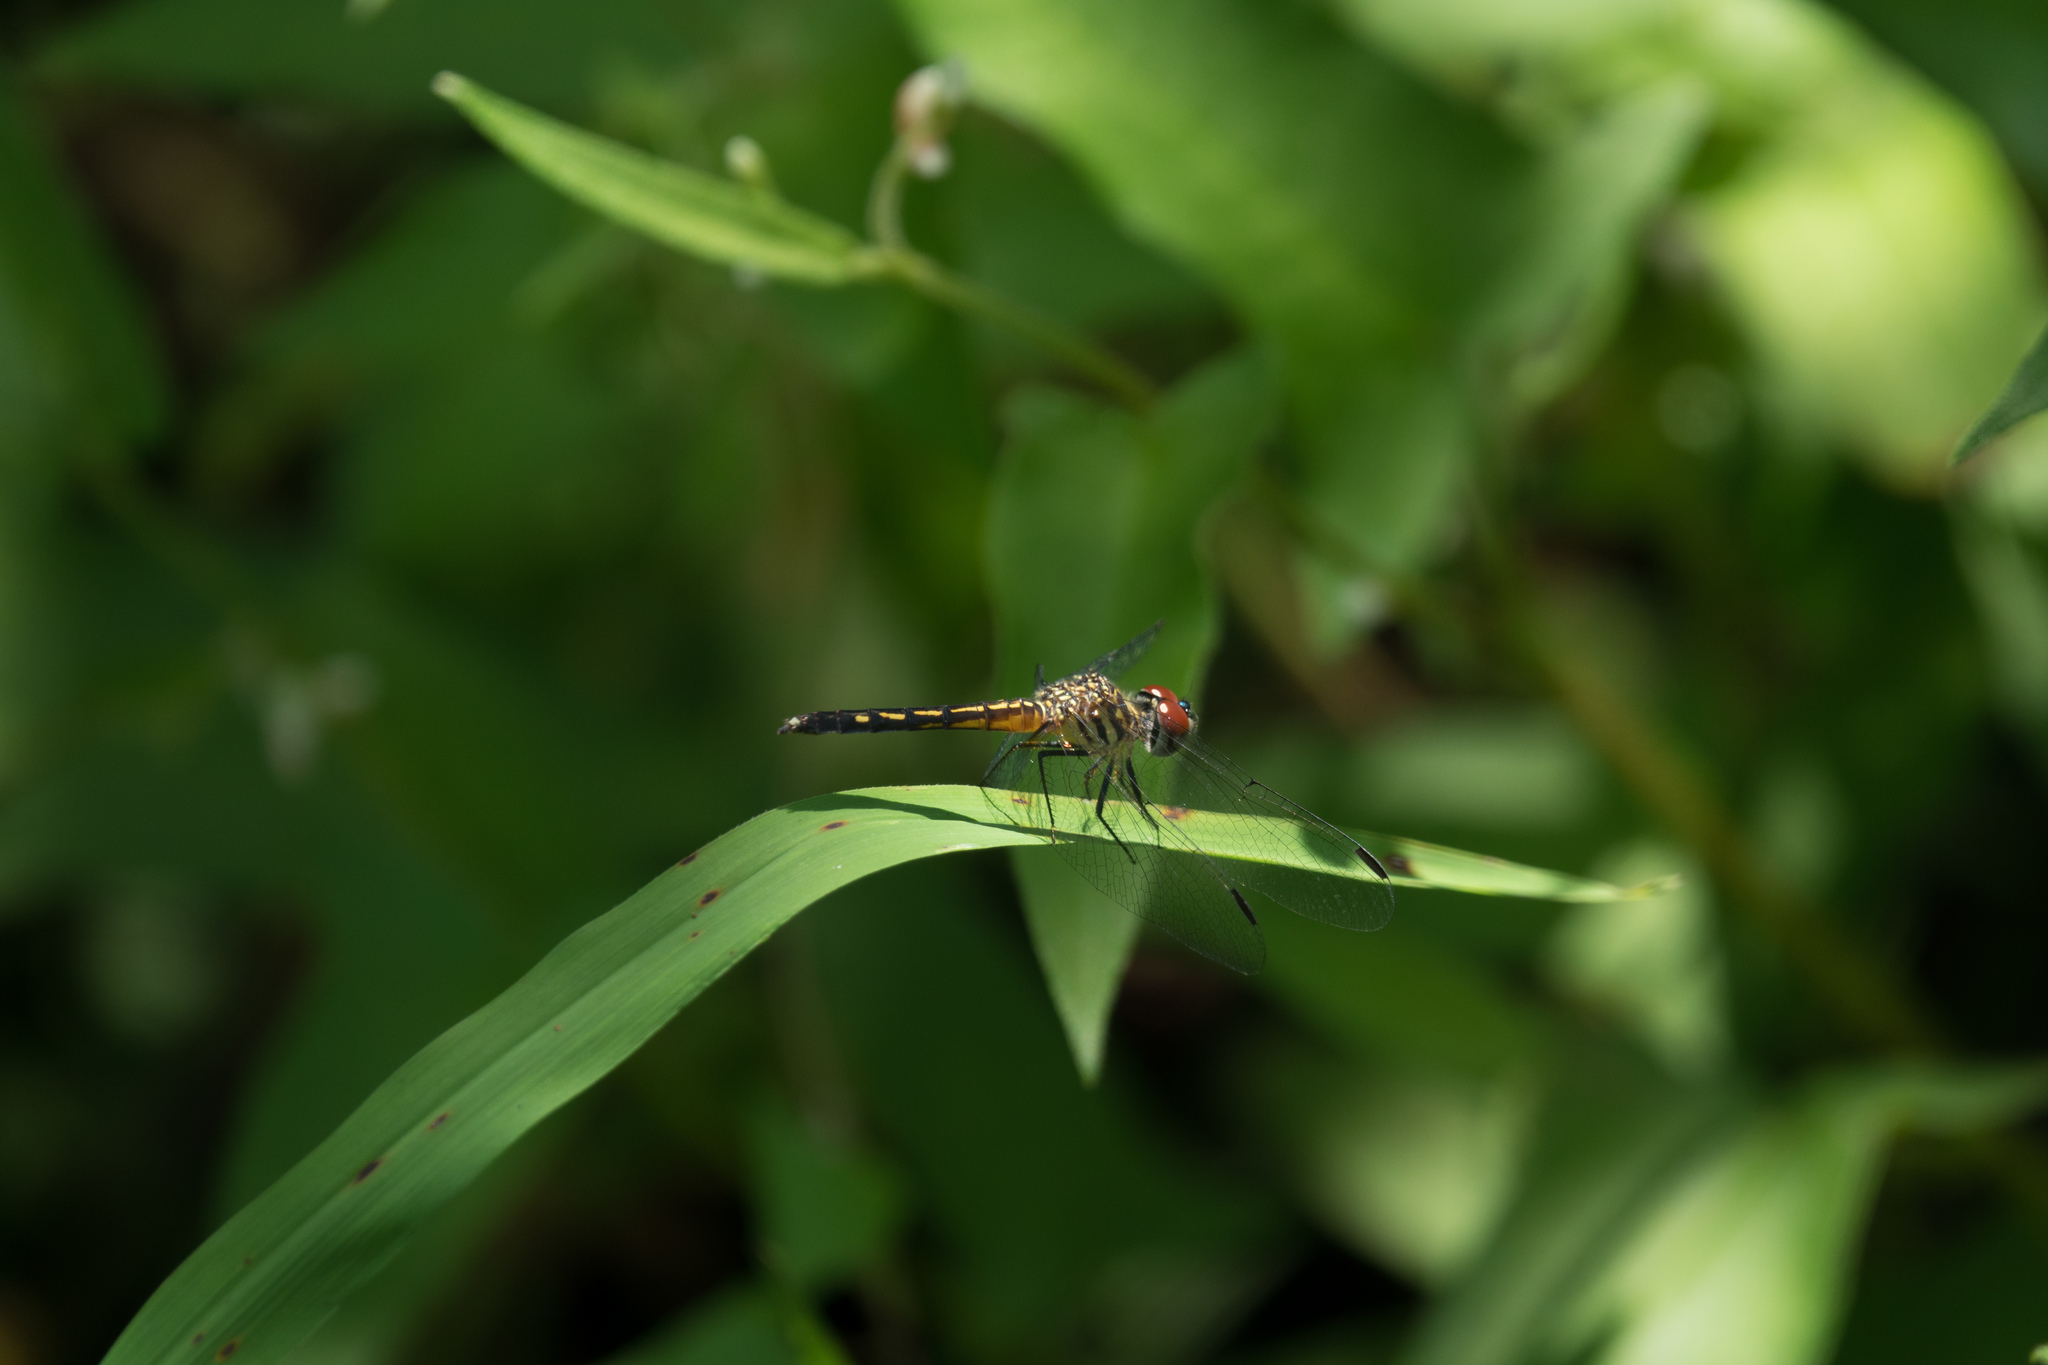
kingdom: Animalia
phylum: Arthropoda
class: Insecta
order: Odonata
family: Libellulidae
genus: Pachydiplax
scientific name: Pachydiplax longipennis
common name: Blue dasher
